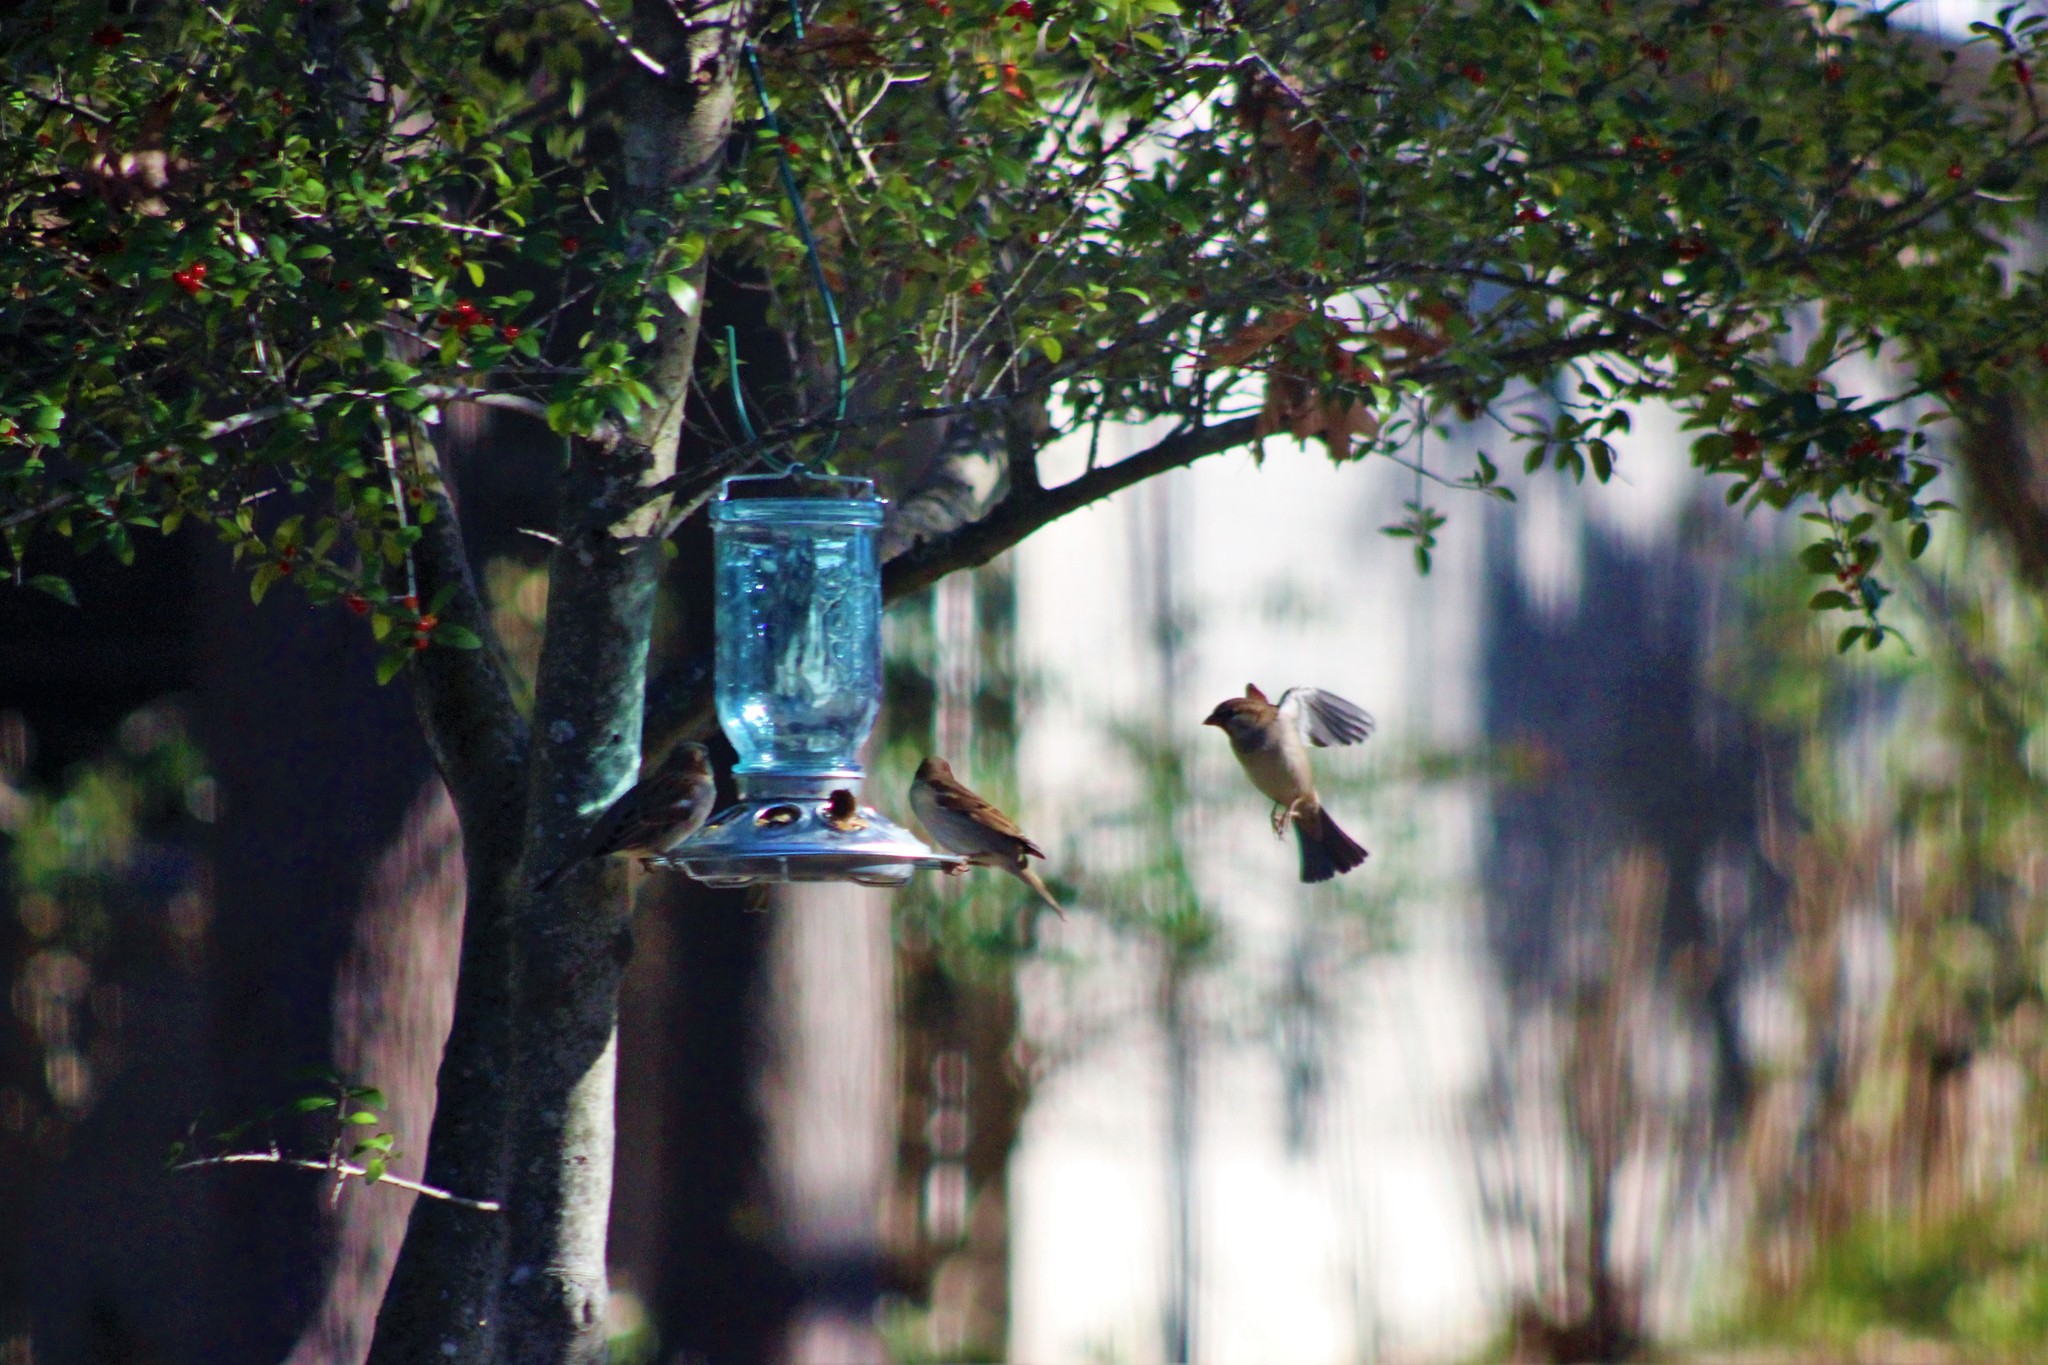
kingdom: Animalia
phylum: Chordata
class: Aves
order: Passeriformes
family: Passeridae
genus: Passer
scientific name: Passer domesticus
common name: House sparrow
